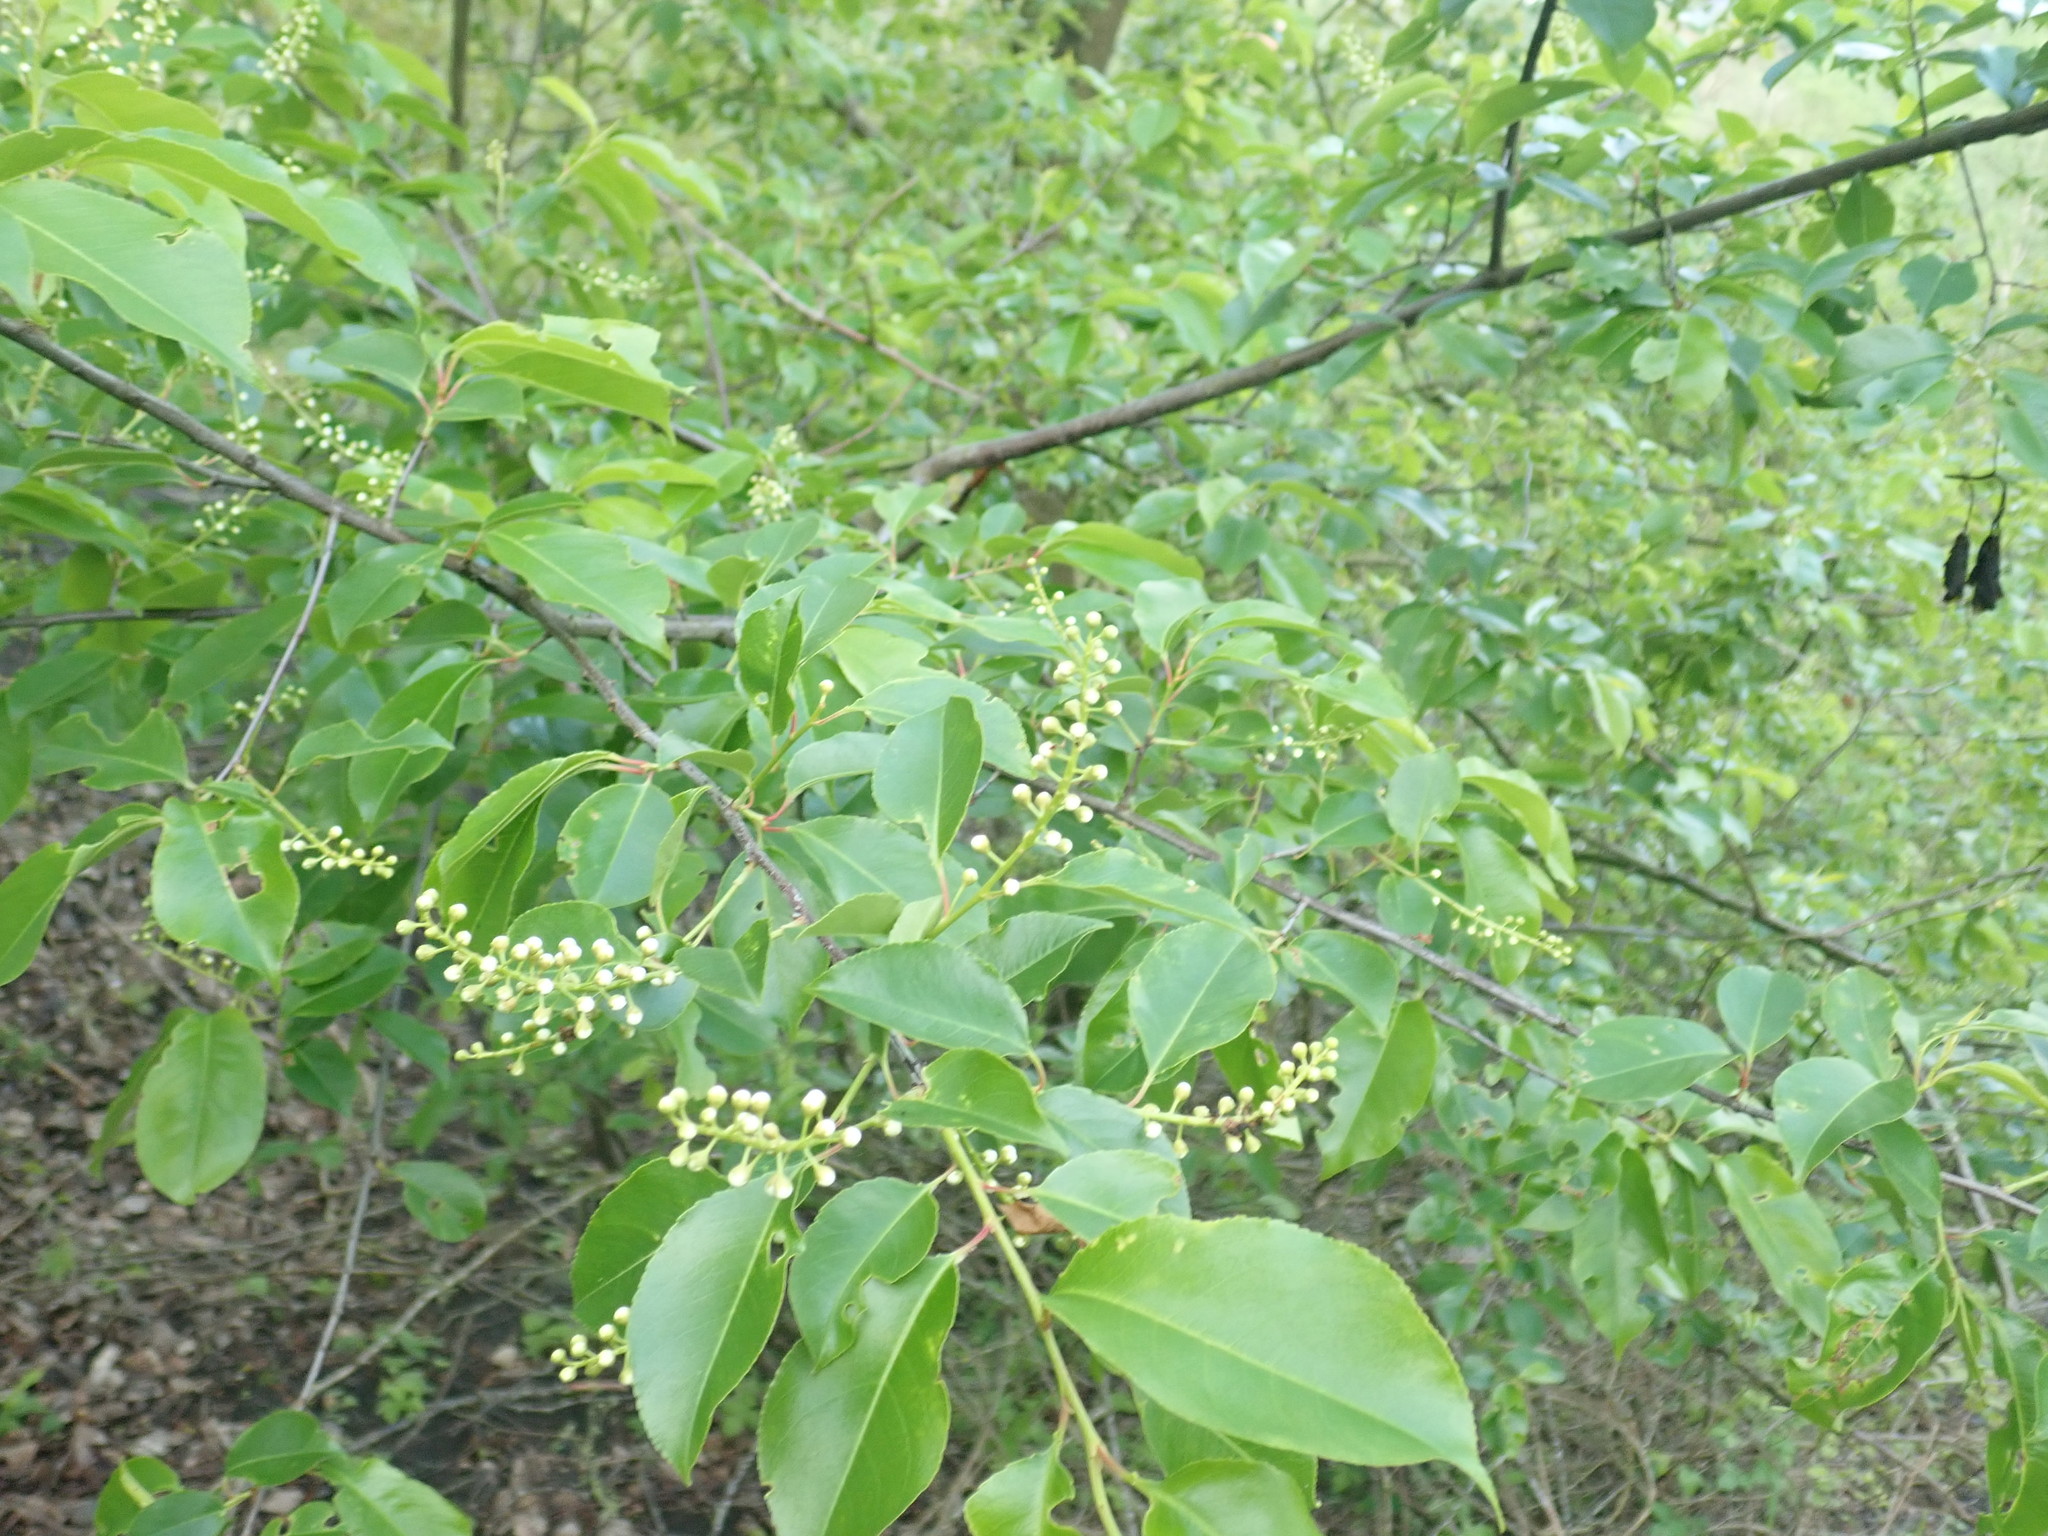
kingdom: Plantae
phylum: Tracheophyta
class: Magnoliopsida
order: Rosales
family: Rosaceae
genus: Prunus
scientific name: Prunus serotina
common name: Black cherry
